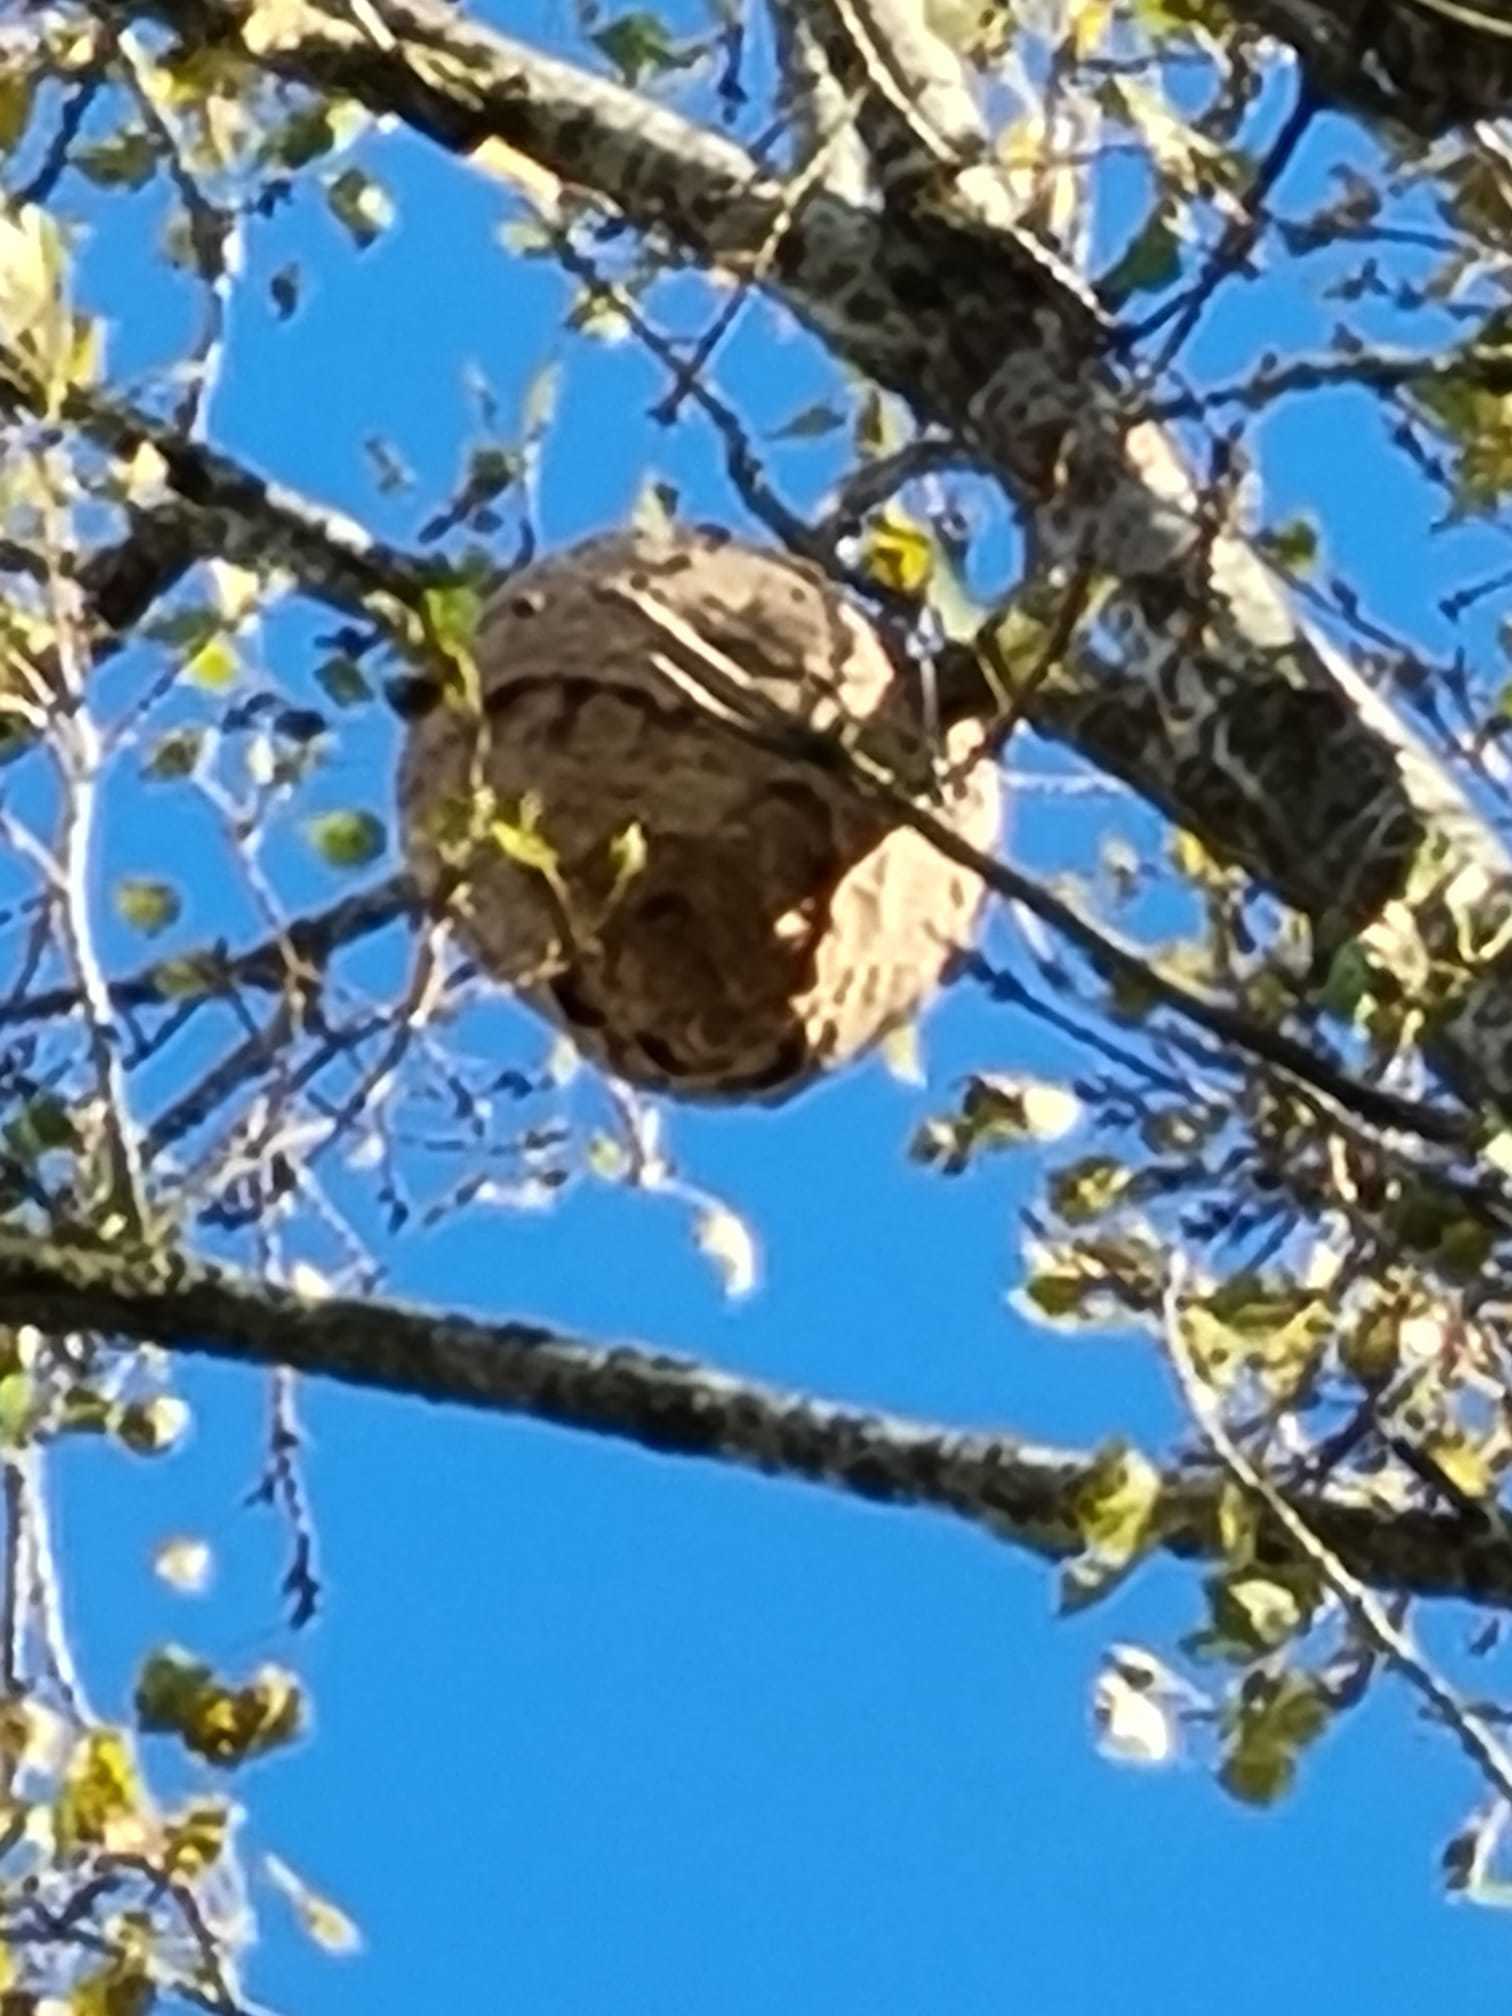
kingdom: Animalia
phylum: Arthropoda
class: Insecta
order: Hymenoptera
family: Vespidae
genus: Vespa
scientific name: Vespa velutina
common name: Asian hornet
